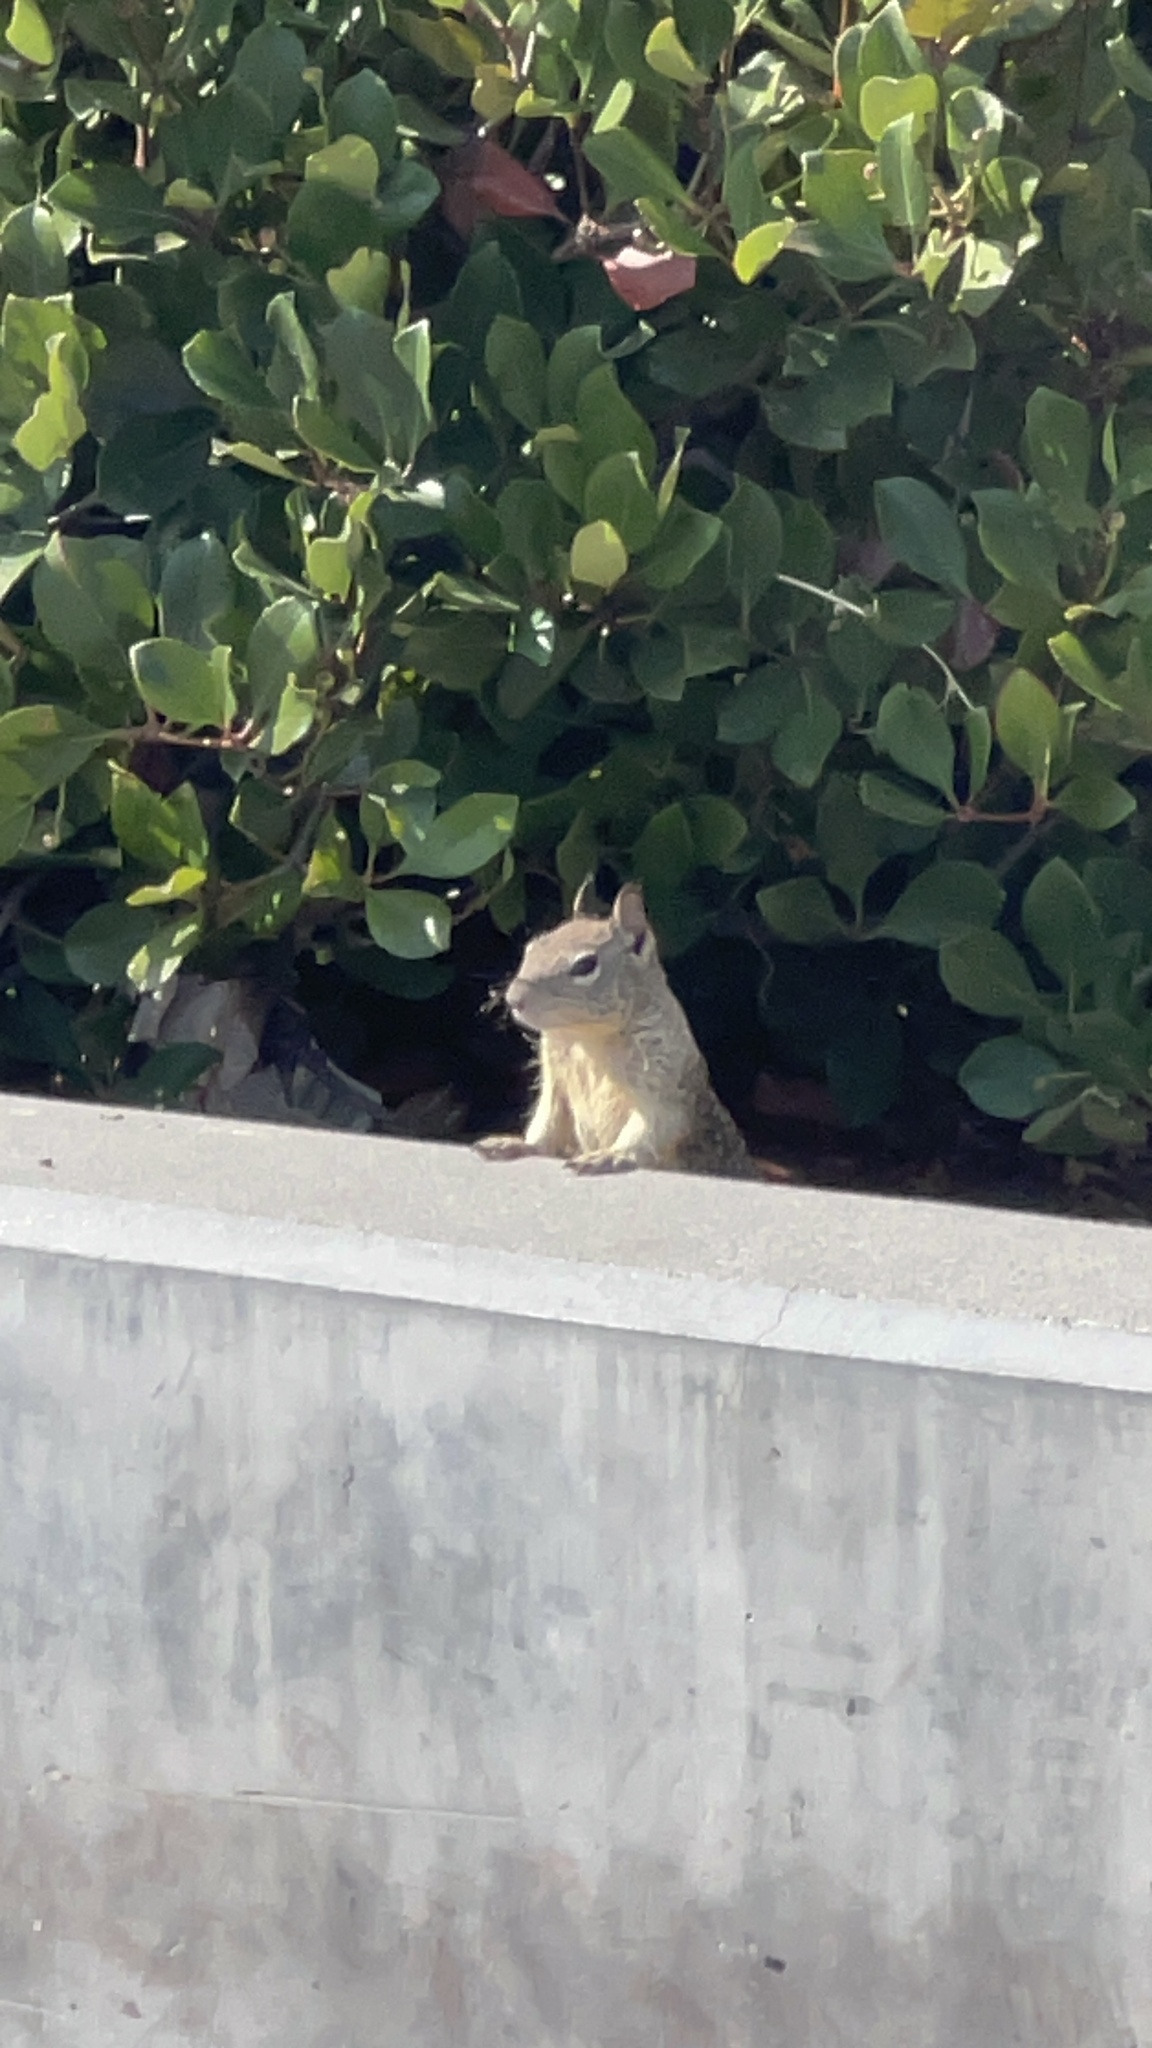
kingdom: Animalia
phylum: Chordata
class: Mammalia
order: Rodentia
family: Sciuridae
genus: Otospermophilus
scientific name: Otospermophilus beecheyi
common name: California ground squirrel
